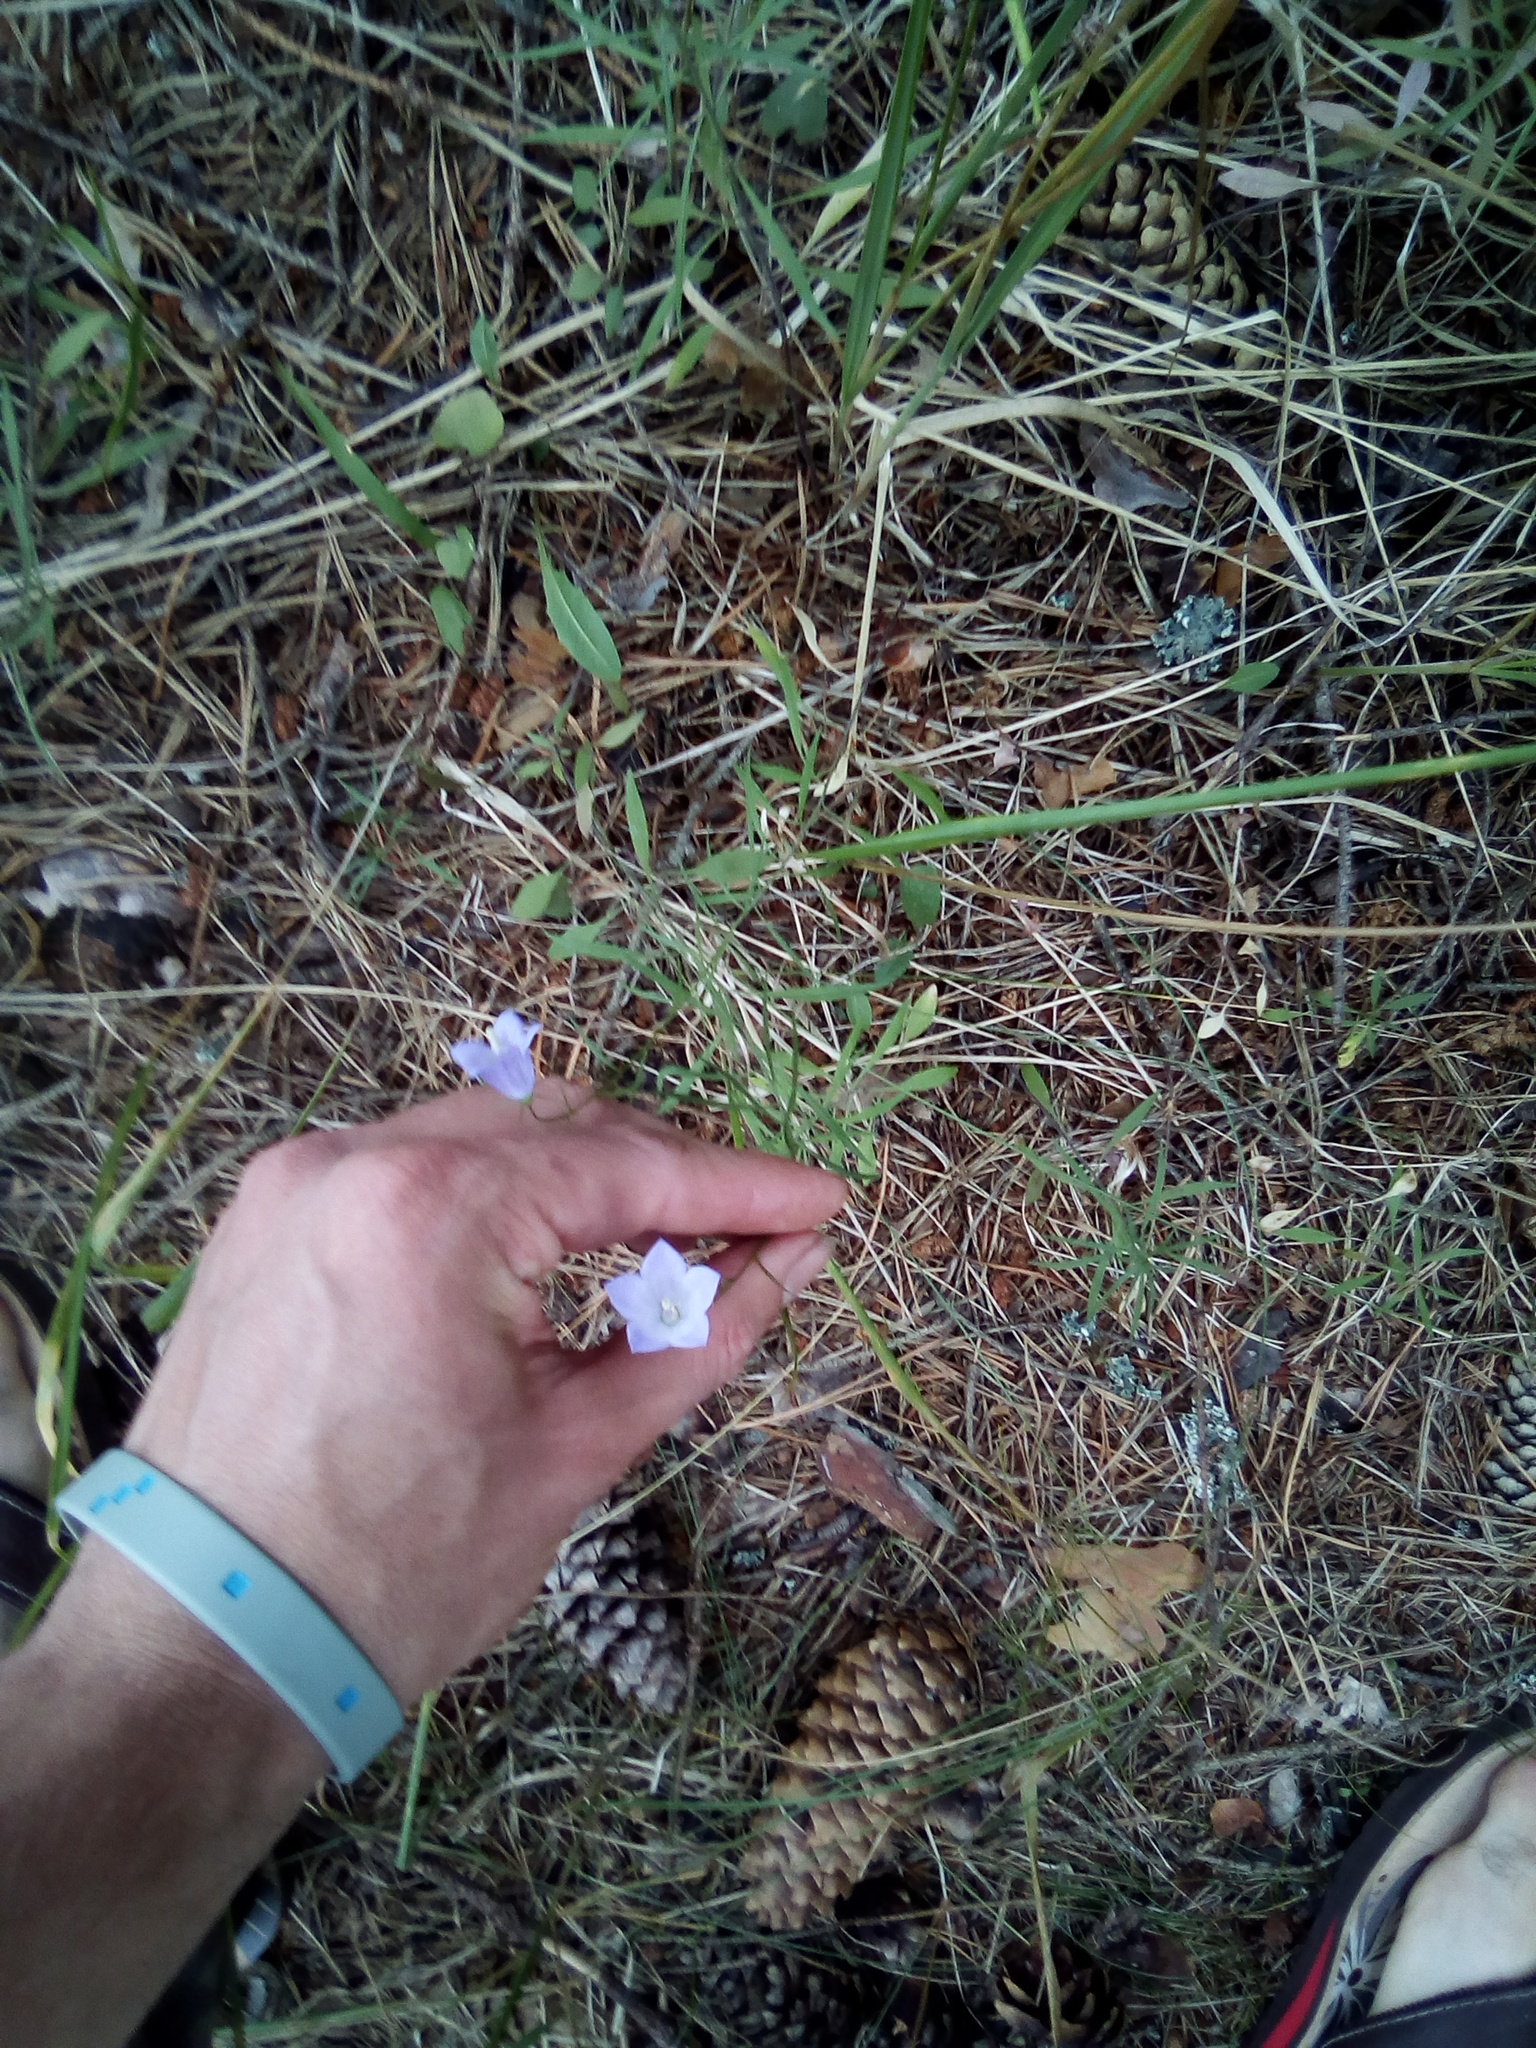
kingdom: Plantae
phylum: Tracheophyta
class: Magnoliopsida
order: Asterales
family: Campanulaceae
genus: Campanula
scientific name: Campanula rotundifolia
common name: Harebell
